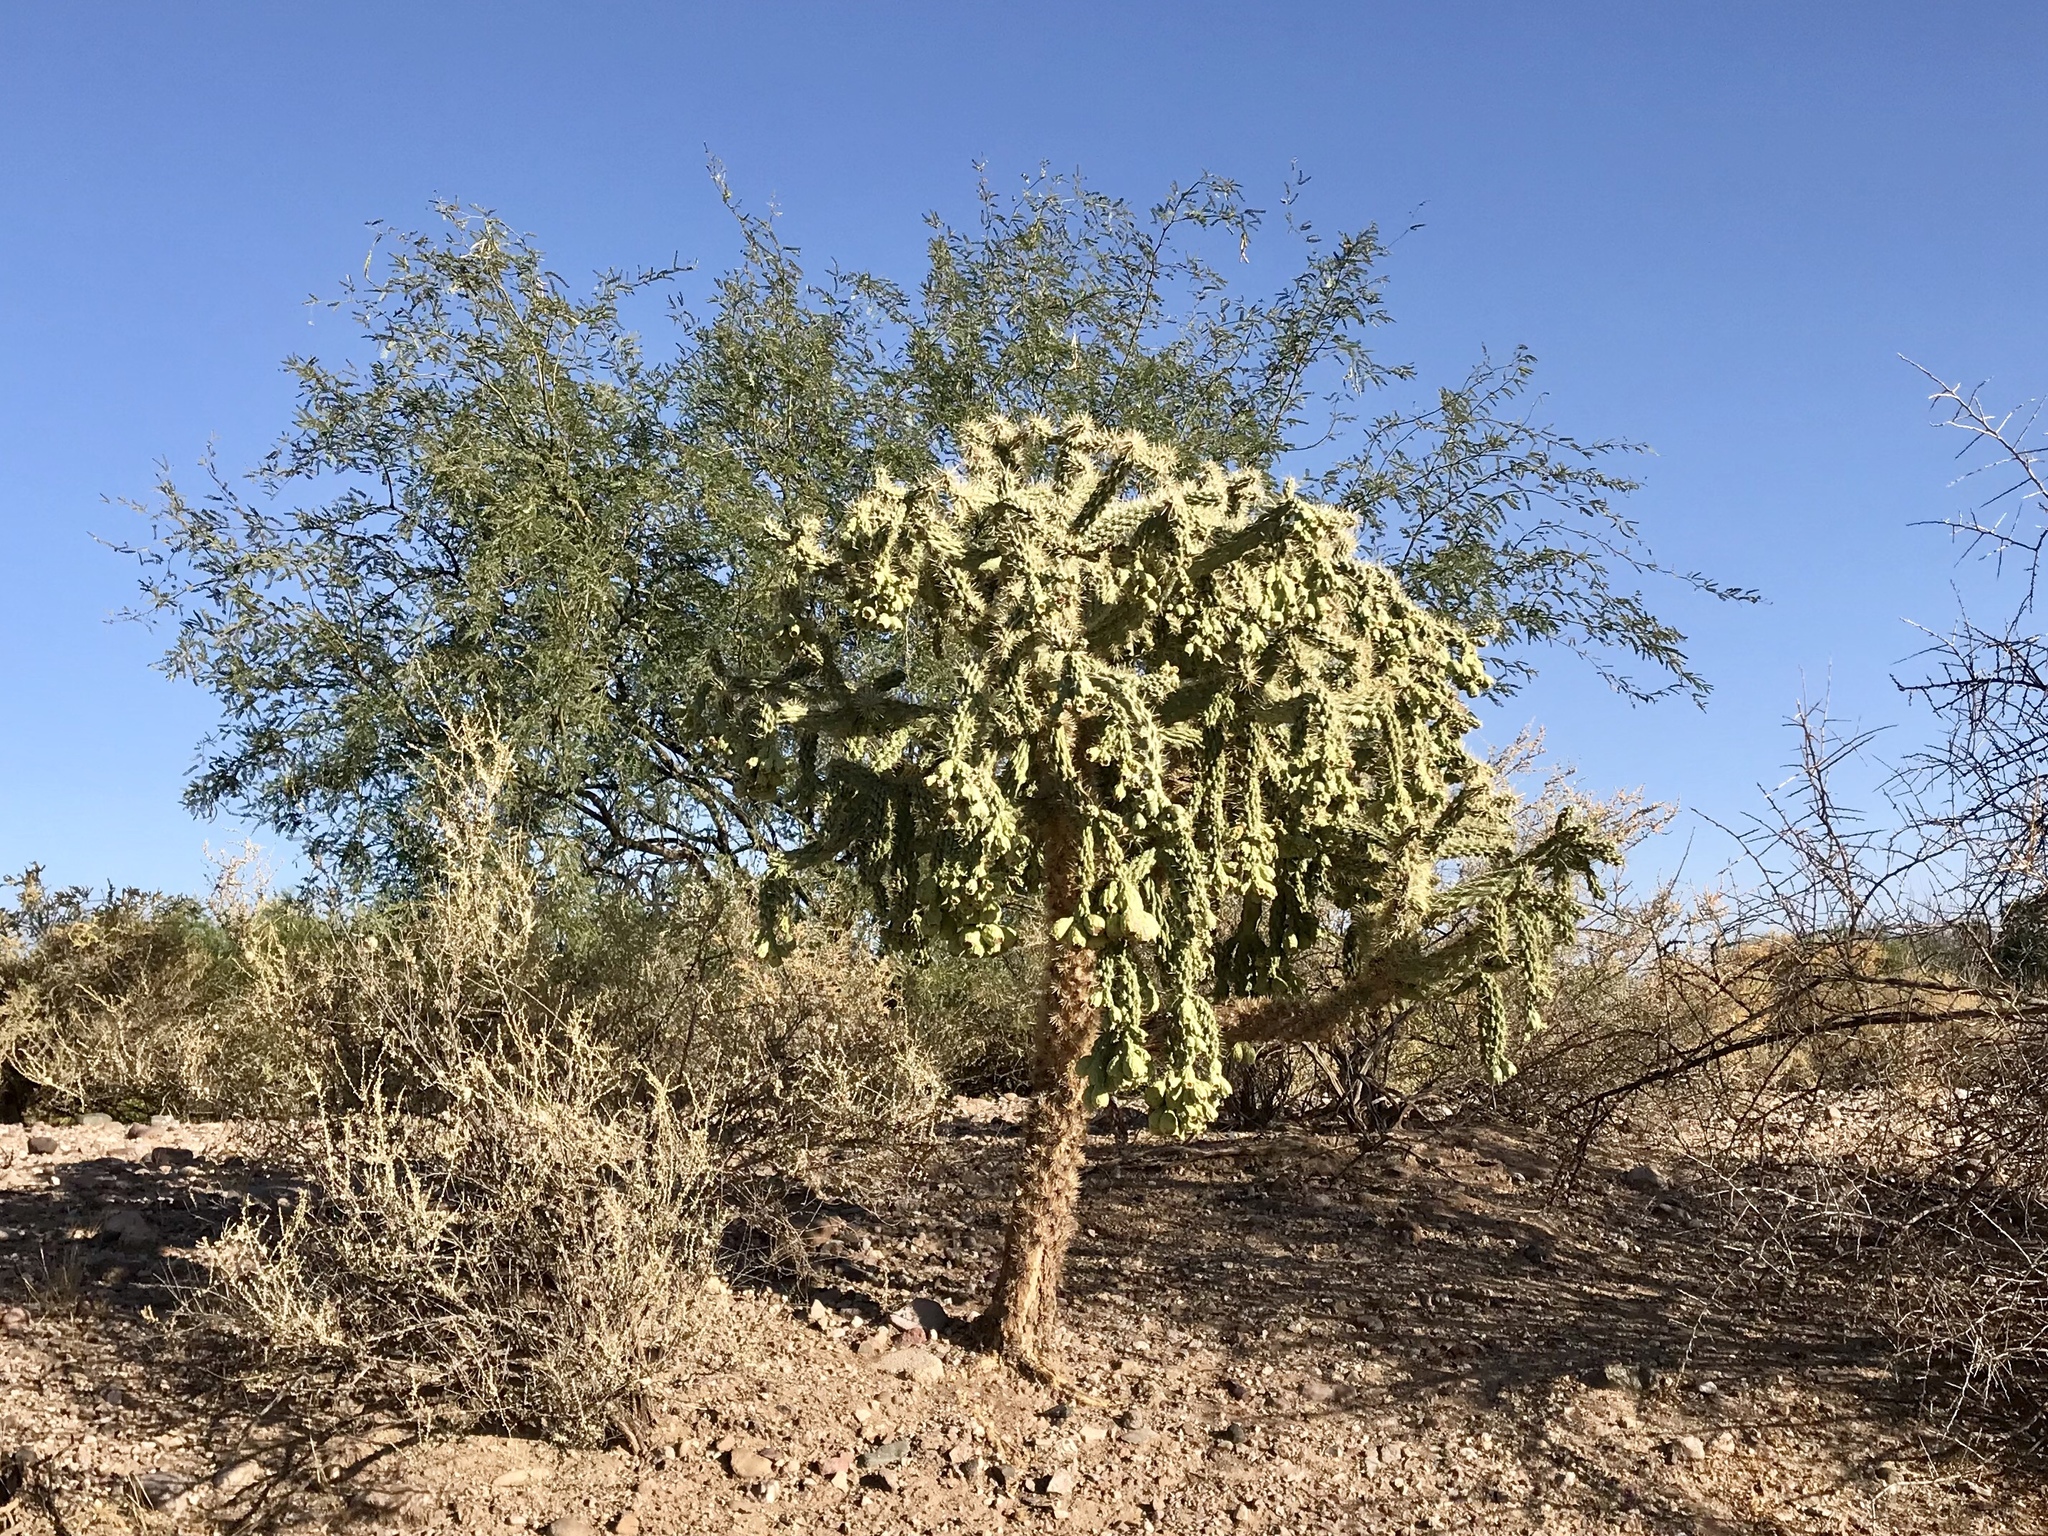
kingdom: Plantae
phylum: Tracheophyta
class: Magnoliopsida
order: Caryophyllales
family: Cactaceae
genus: Cylindropuntia
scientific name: Cylindropuntia fulgida
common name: Jumping cholla
